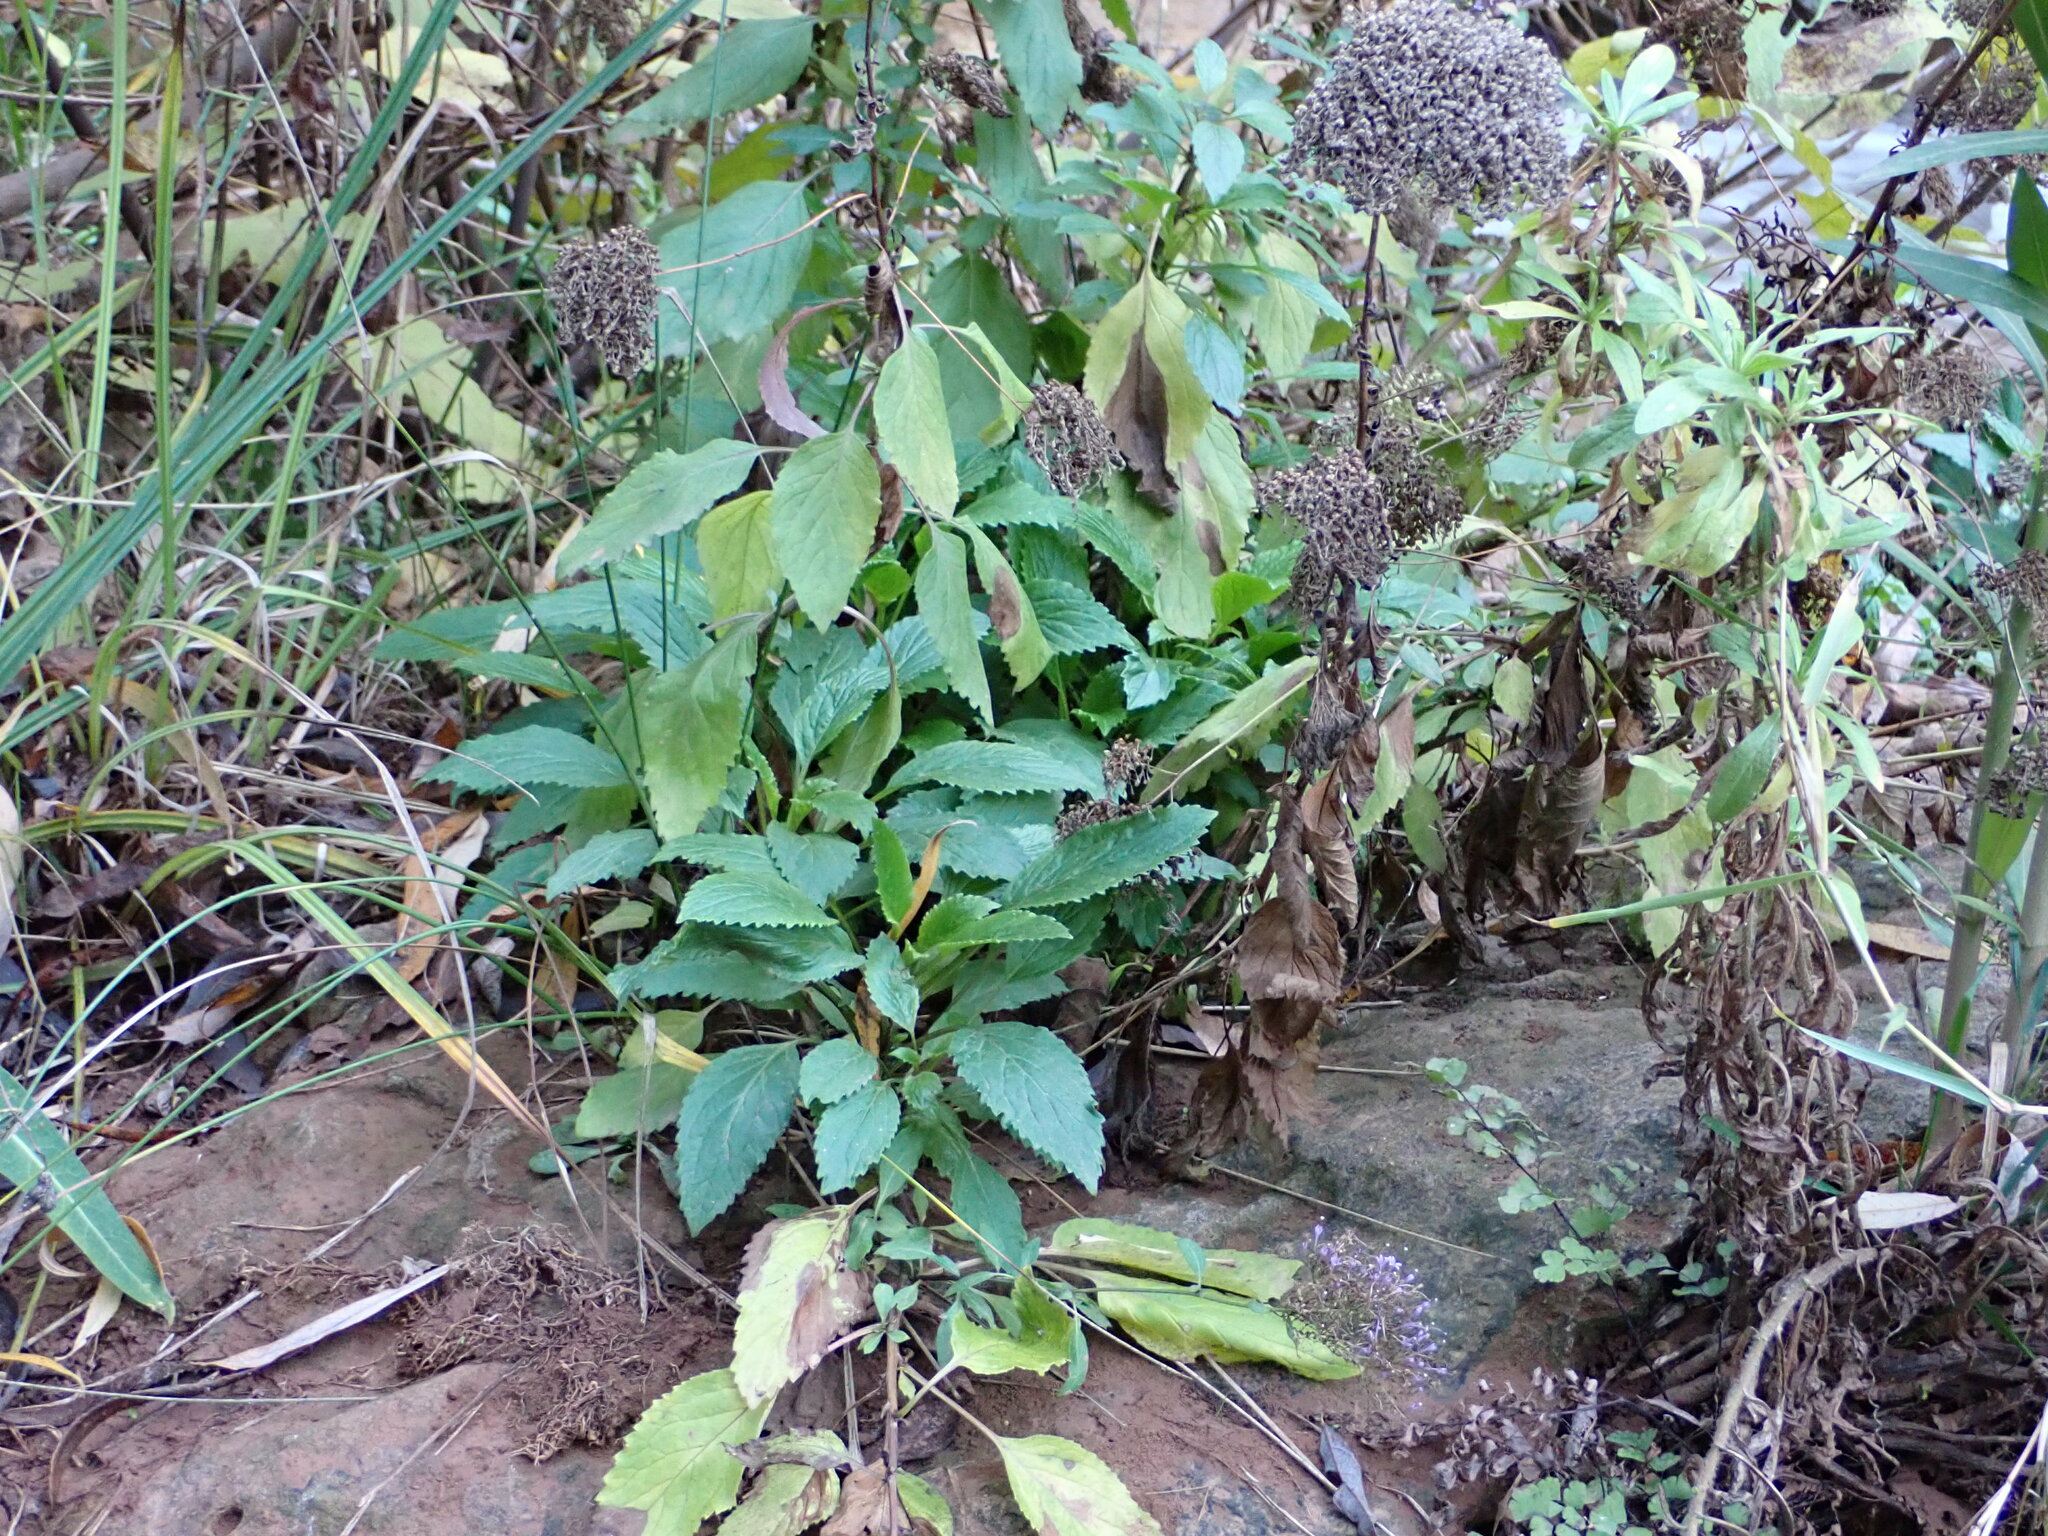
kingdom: Plantae
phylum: Tracheophyta
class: Magnoliopsida
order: Asterales
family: Campanulaceae
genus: Trachelium
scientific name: Trachelium caeruleum
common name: Throatwort
